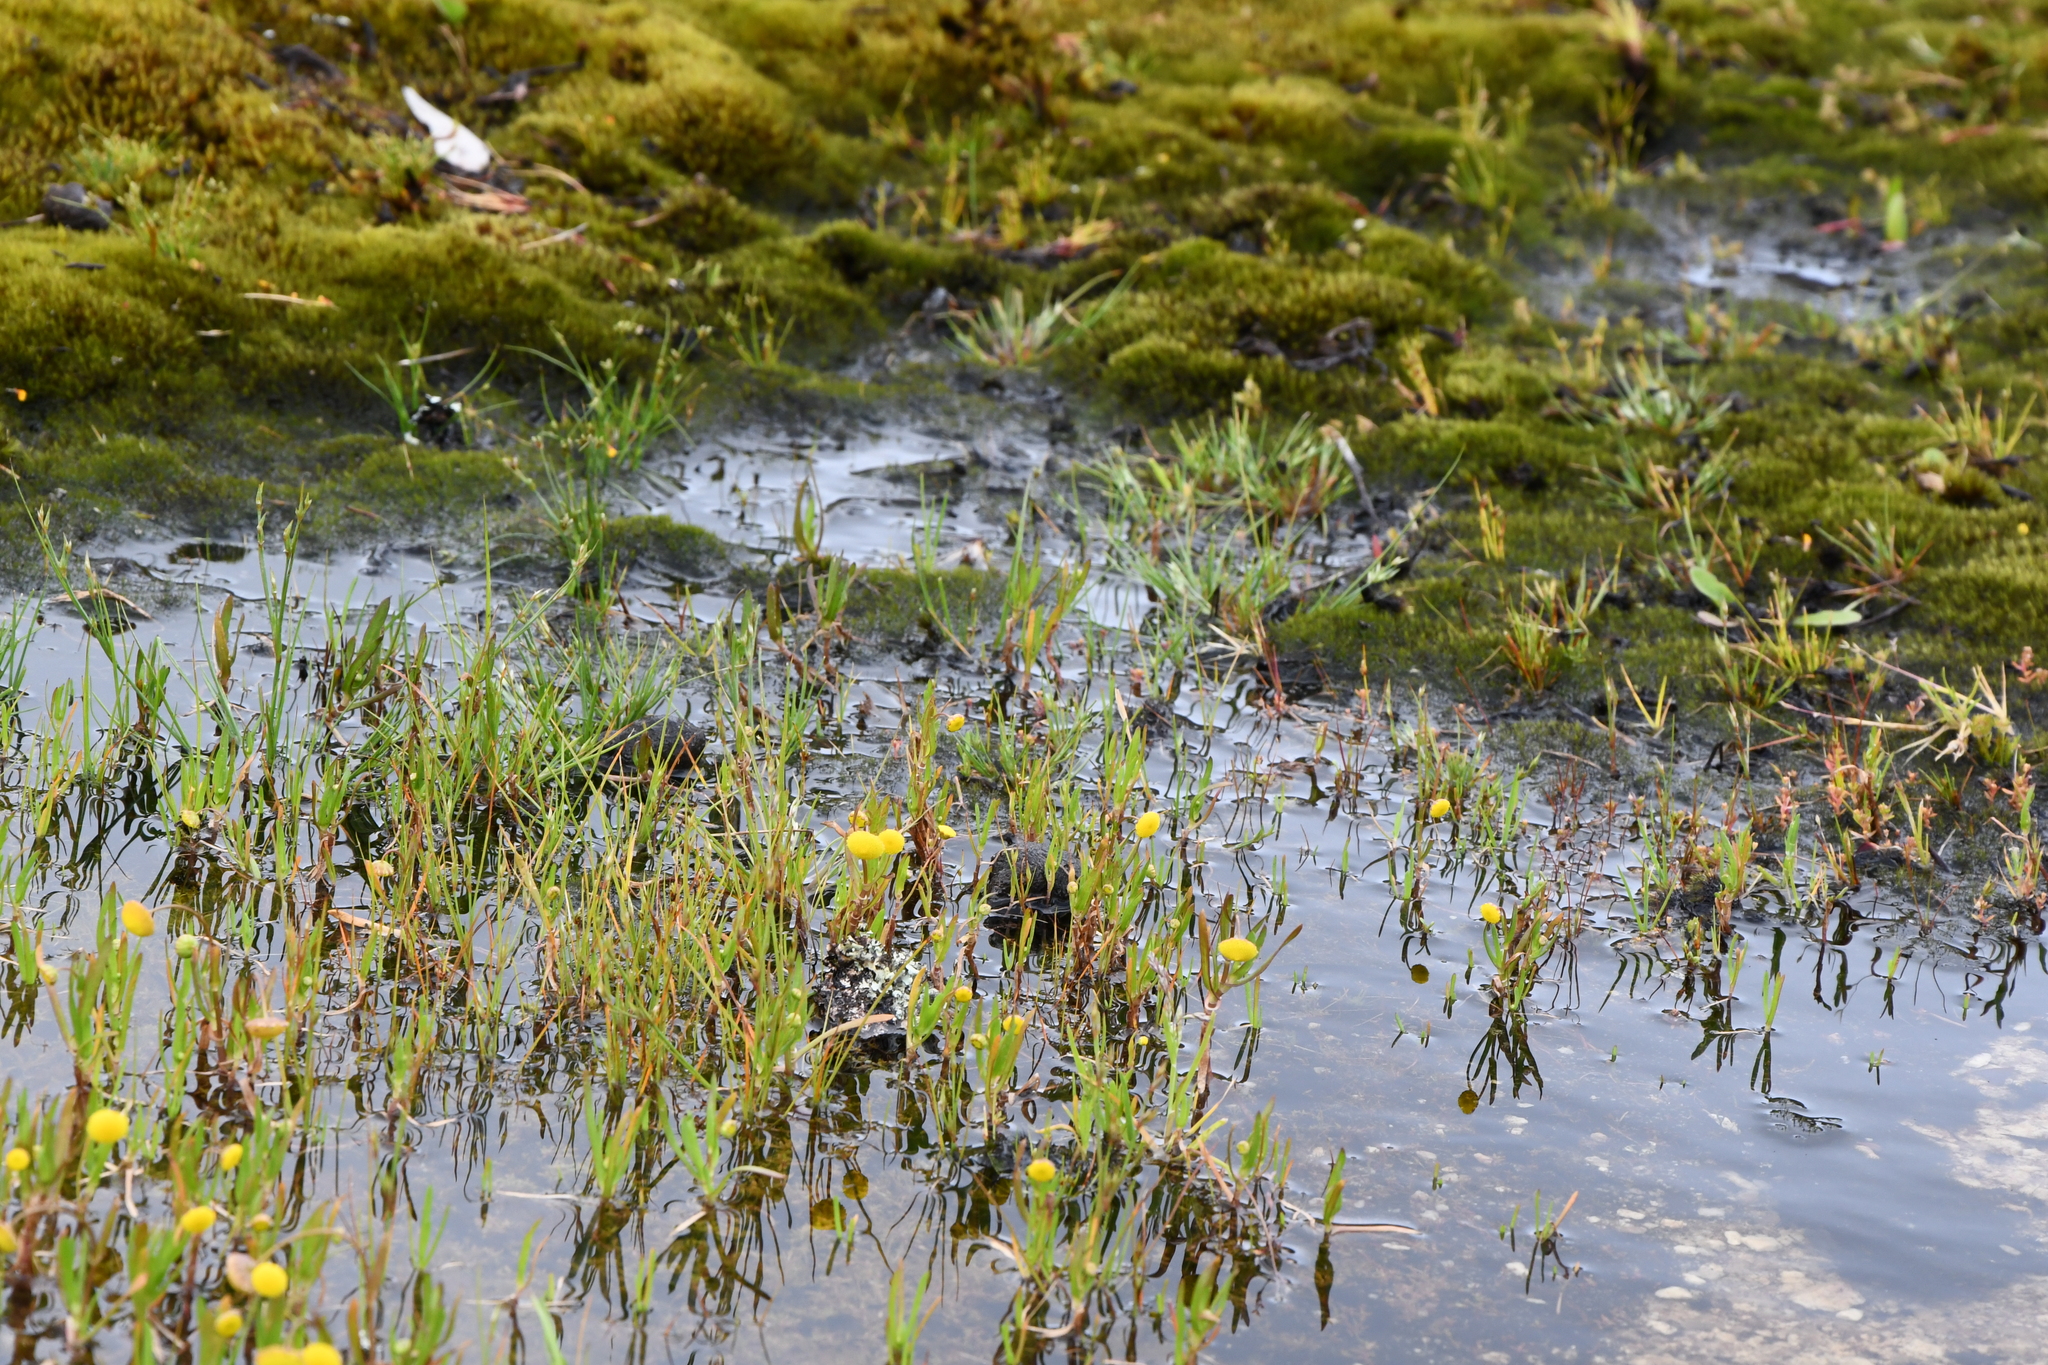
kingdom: Plantae
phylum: Tracheophyta
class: Magnoliopsida
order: Asterales
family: Asteraceae
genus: Cotula
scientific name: Cotula coronopifolia
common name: Buttonweed
